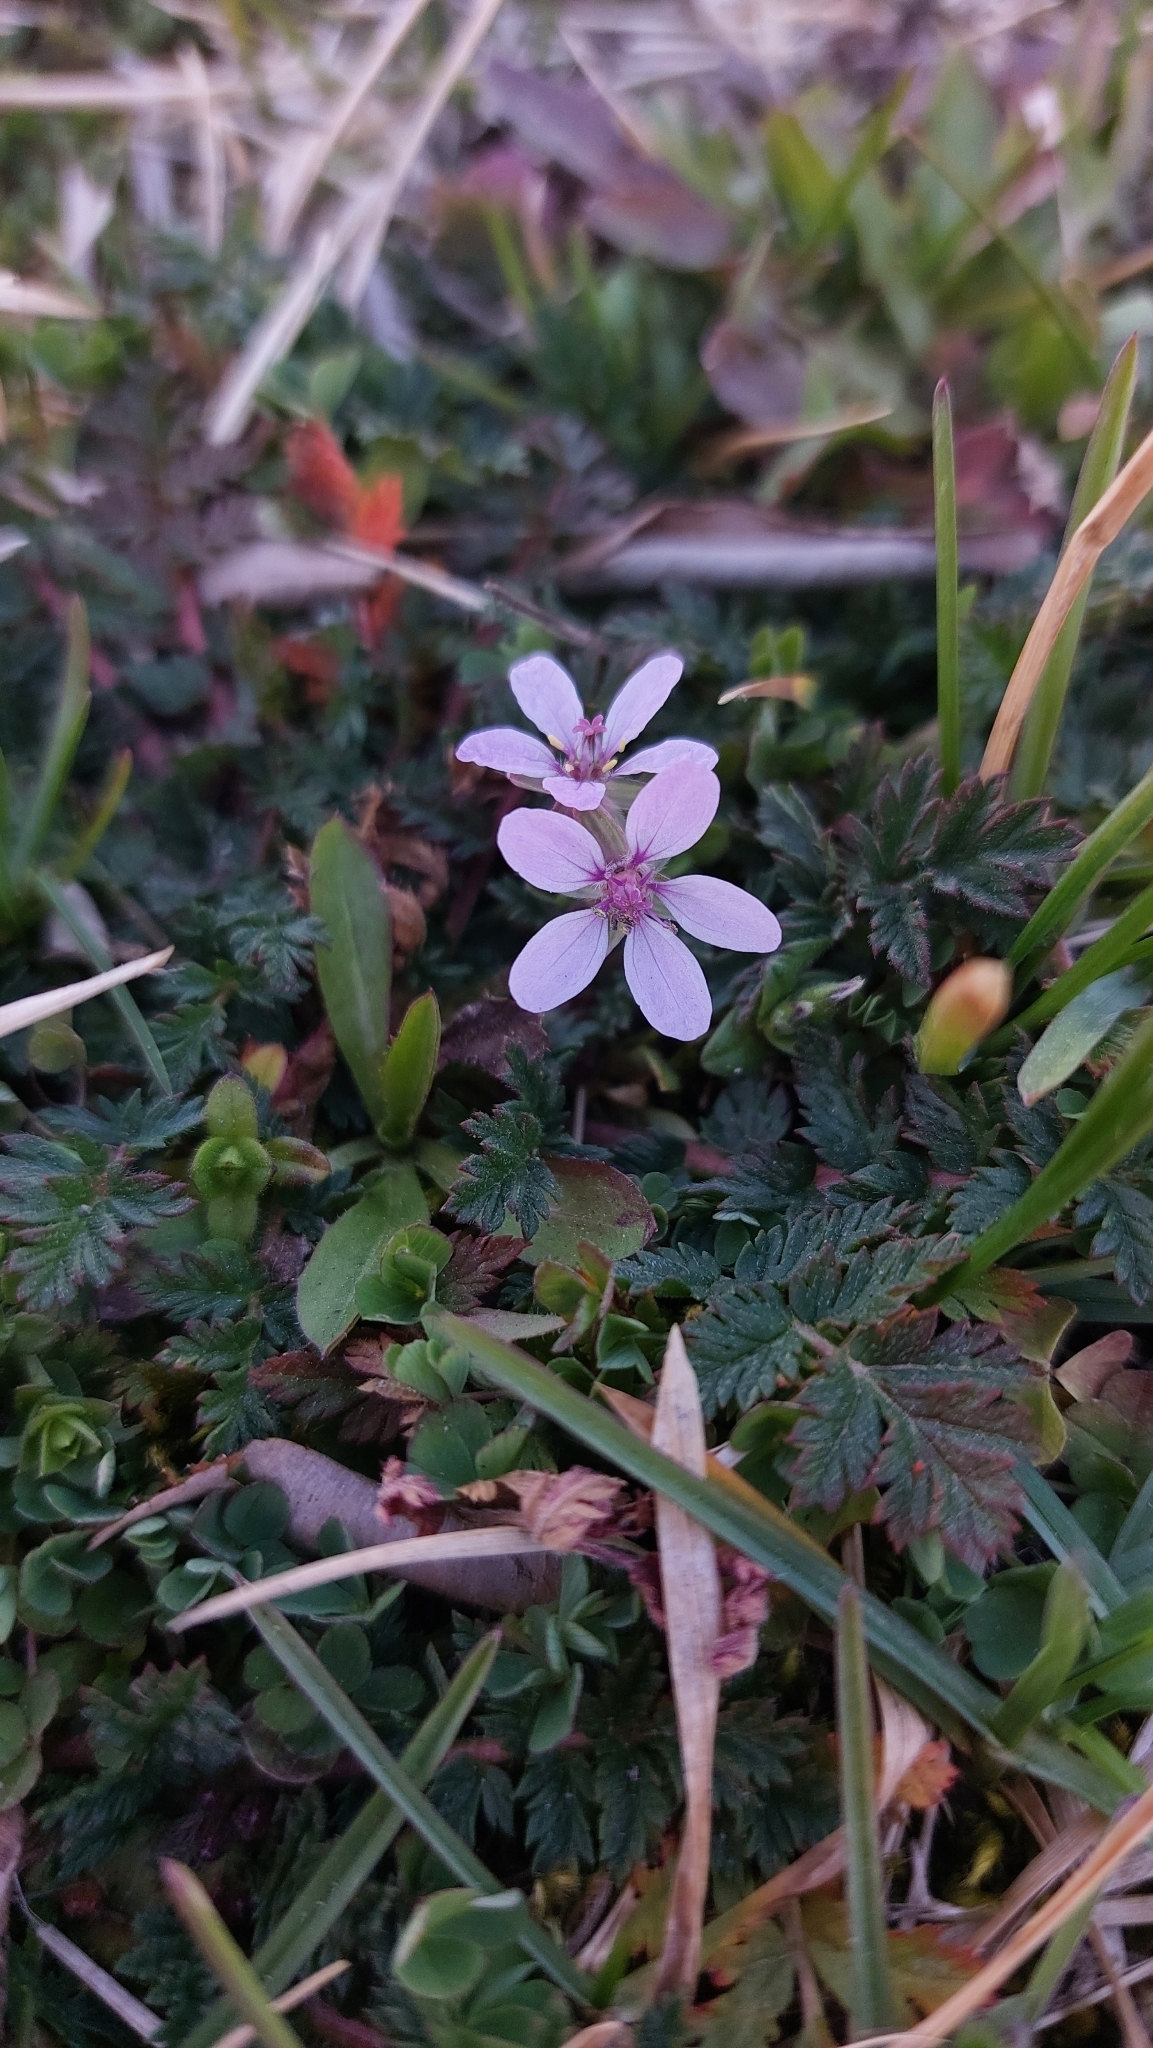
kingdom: Plantae
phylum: Tracheophyta
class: Magnoliopsida
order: Geraniales
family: Geraniaceae
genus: Erodium
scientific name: Erodium cicutarium
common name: Common stork's-bill
